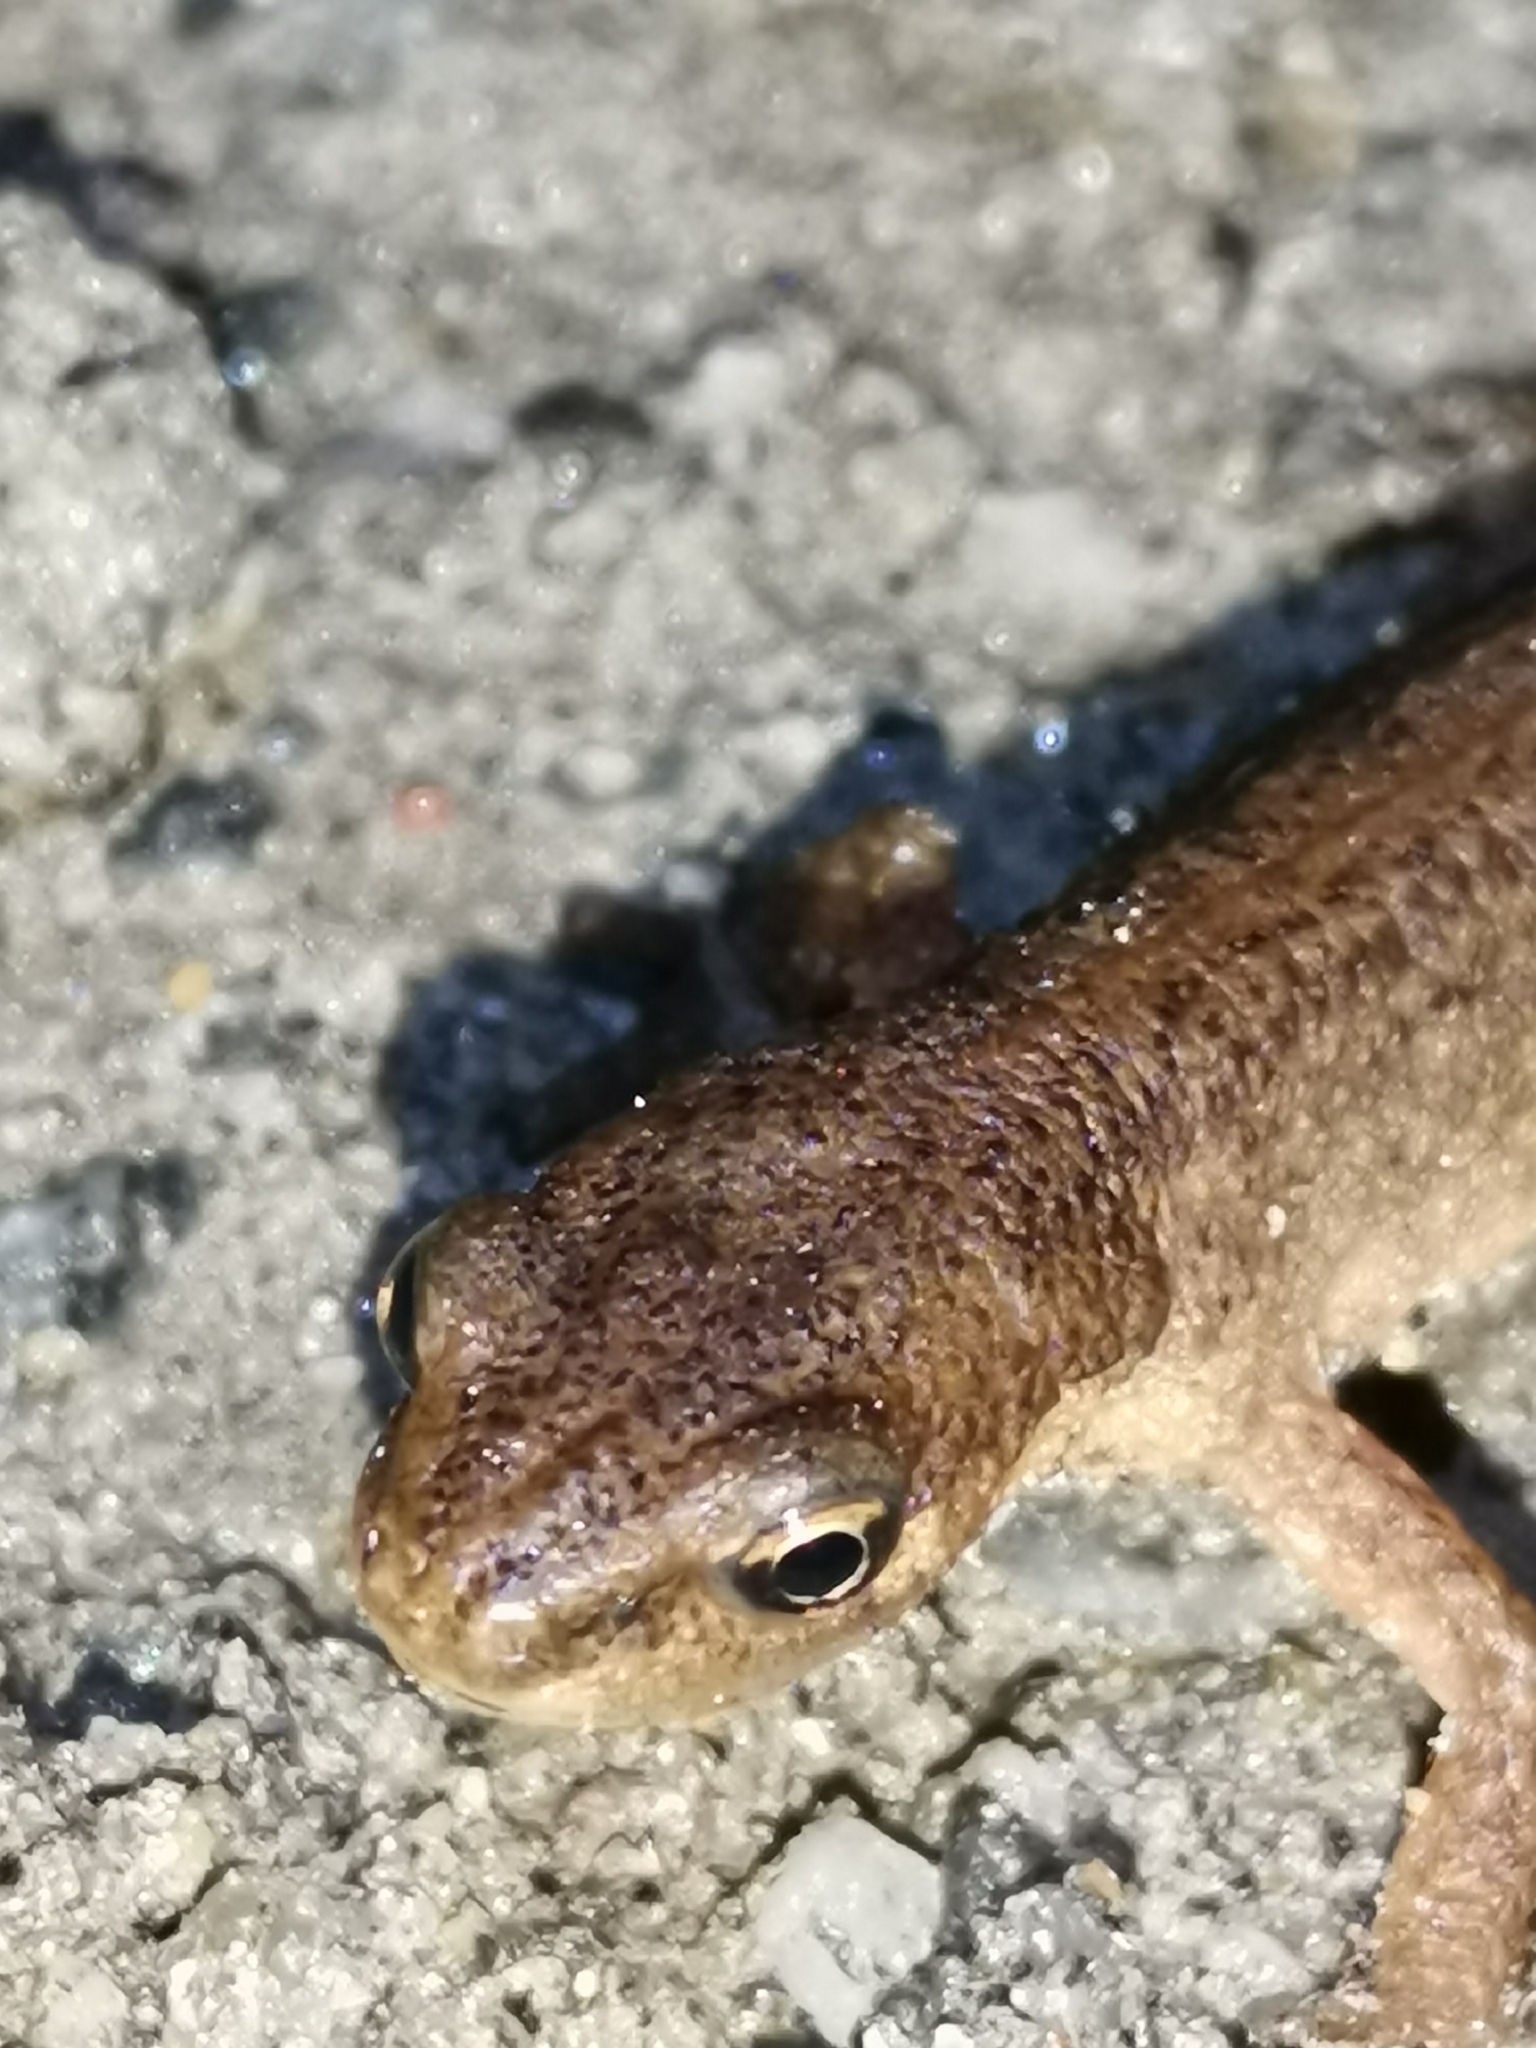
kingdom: Animalia
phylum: Chordata
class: Amphibia
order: Caudata
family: Salamandridae
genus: Lissotriton
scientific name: Lissotriton vulgaris
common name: Smooth newt
